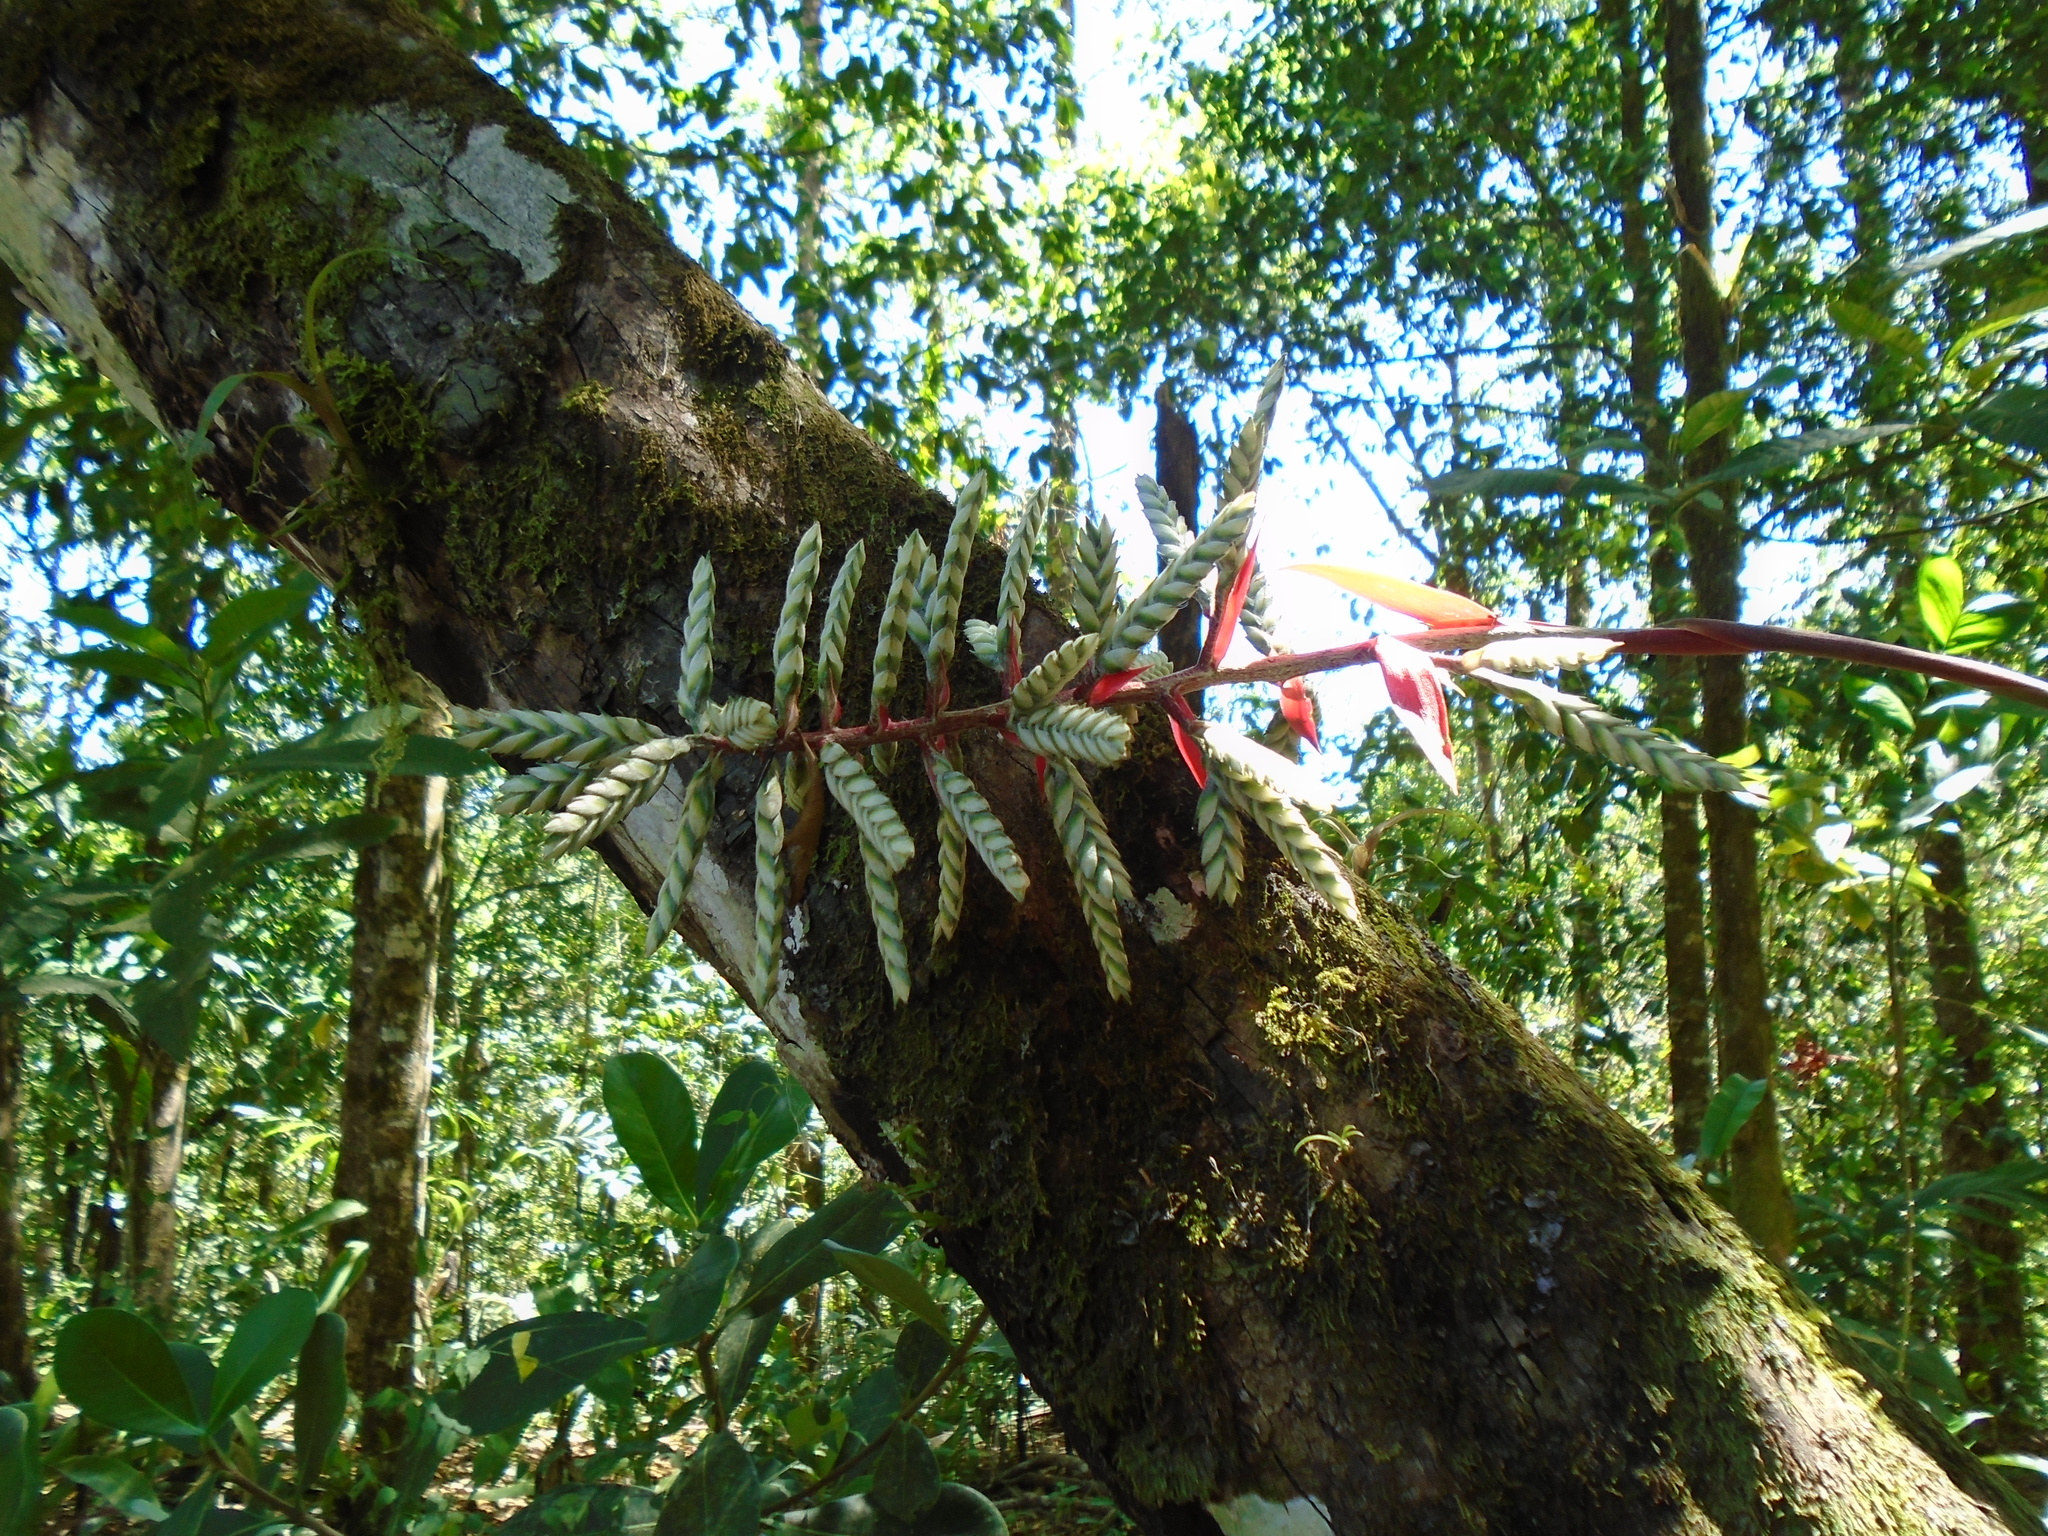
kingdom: Plantae
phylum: Tracheophyta
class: Liliopsida
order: Poales
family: Bromeliaceae
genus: Aechmea
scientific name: Aechmea dactylina
